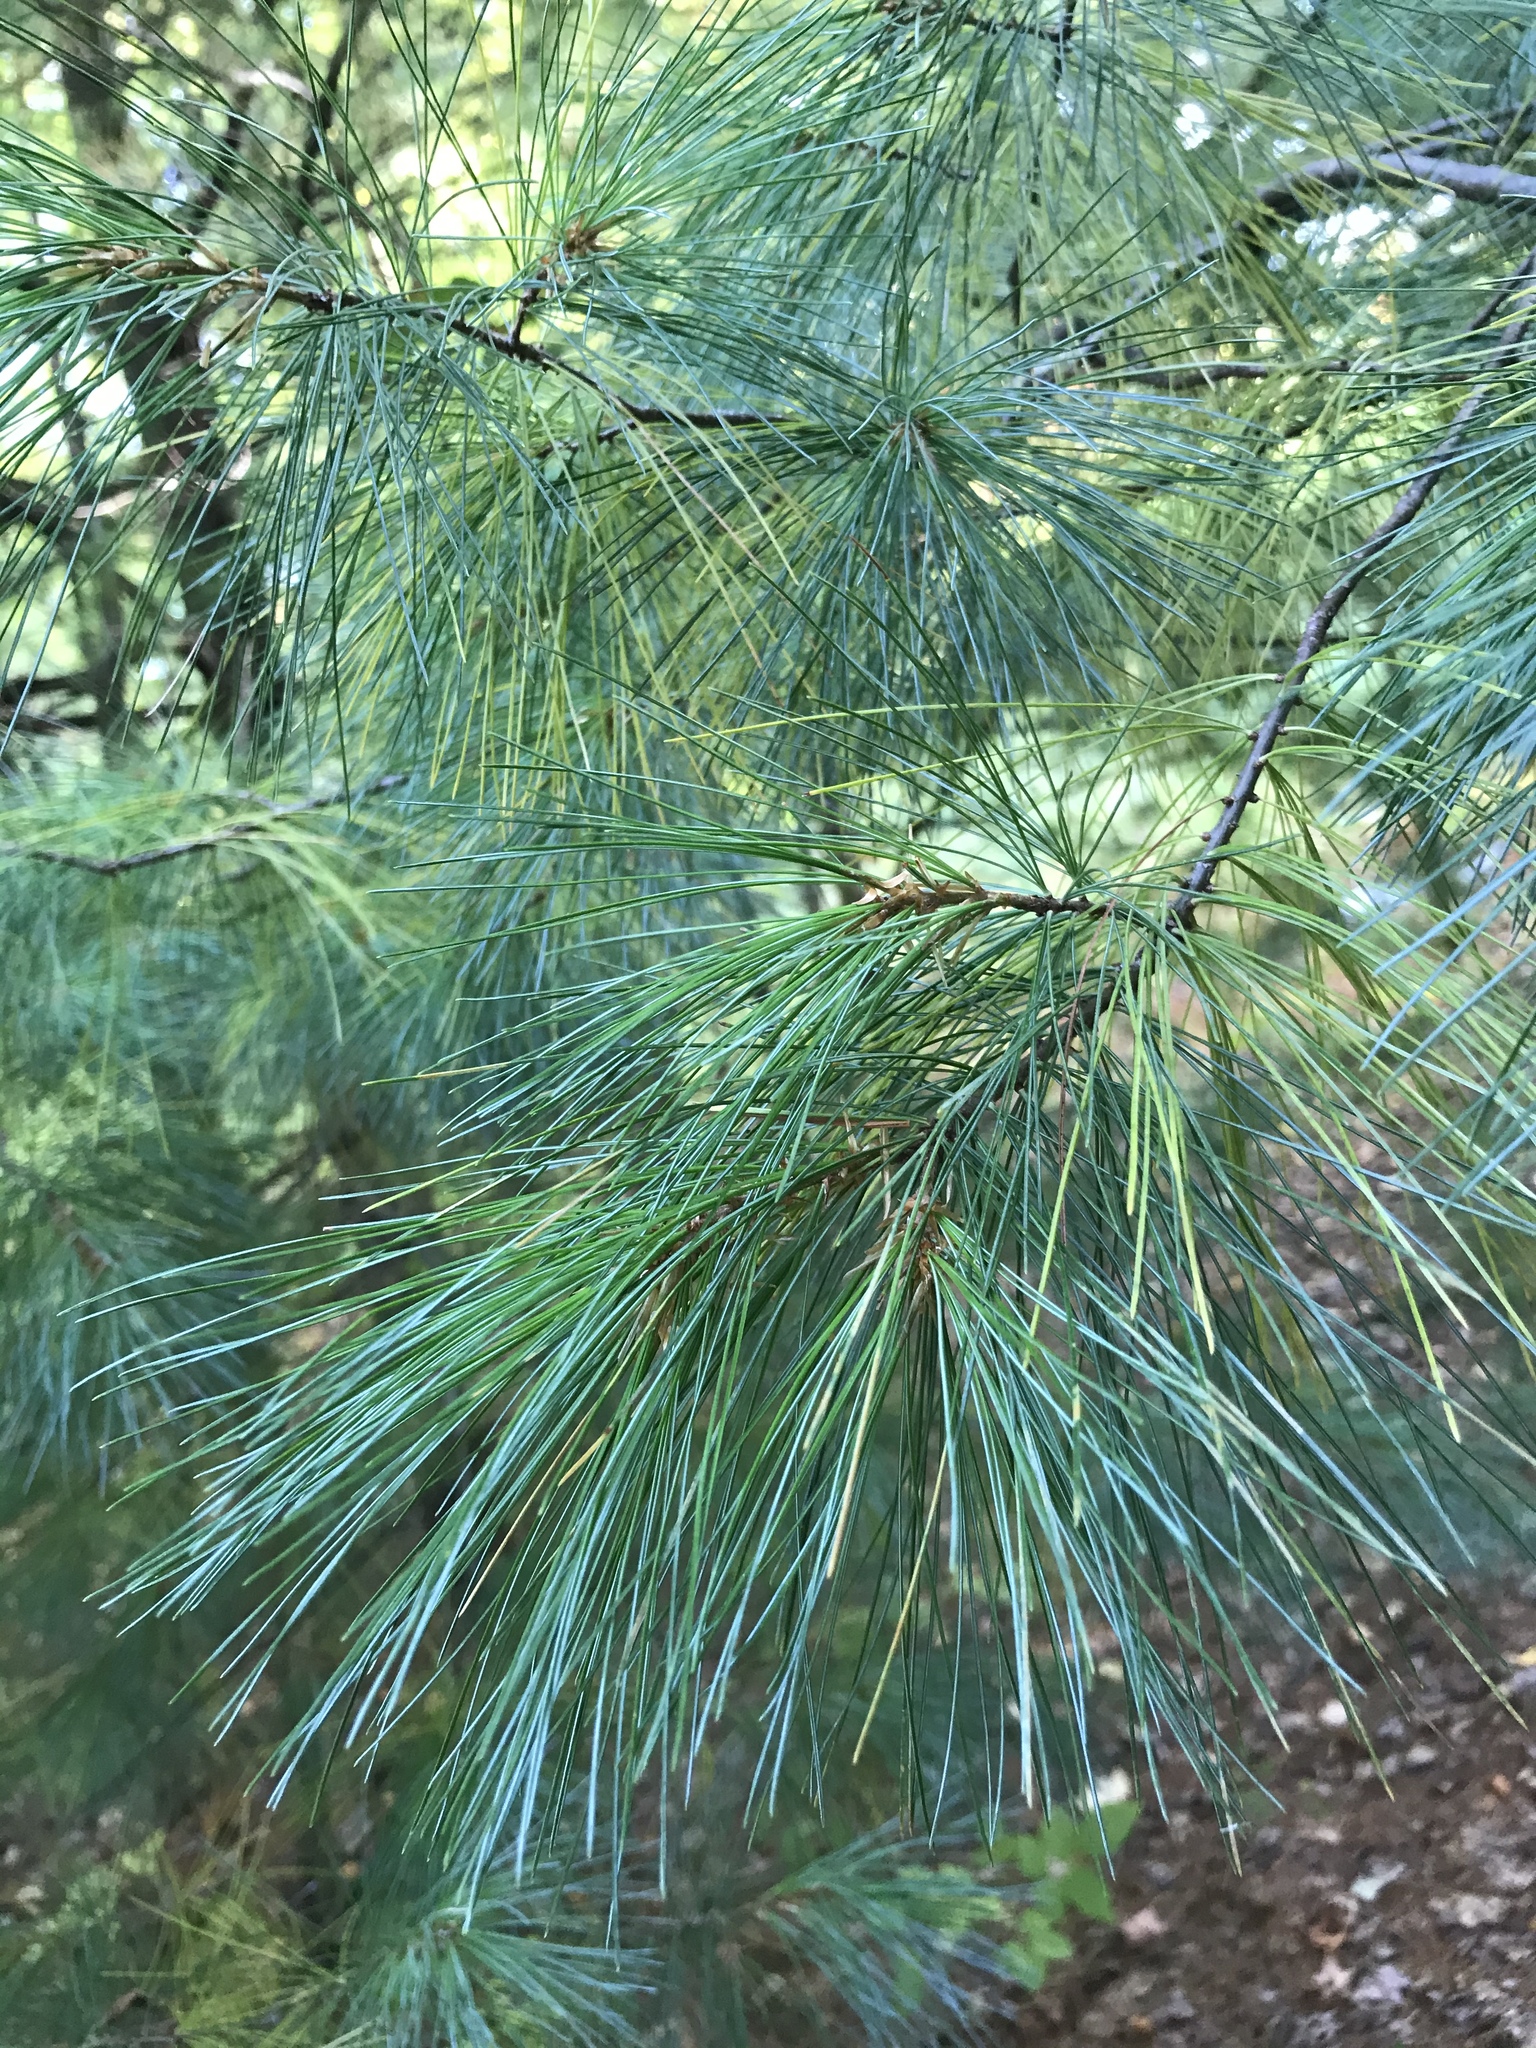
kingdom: Plantae
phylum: Tracheophyta
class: Pinopsida
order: Pinales
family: Pinaceae
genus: Pinus
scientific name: Pinus strobus
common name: Weymouth pine
